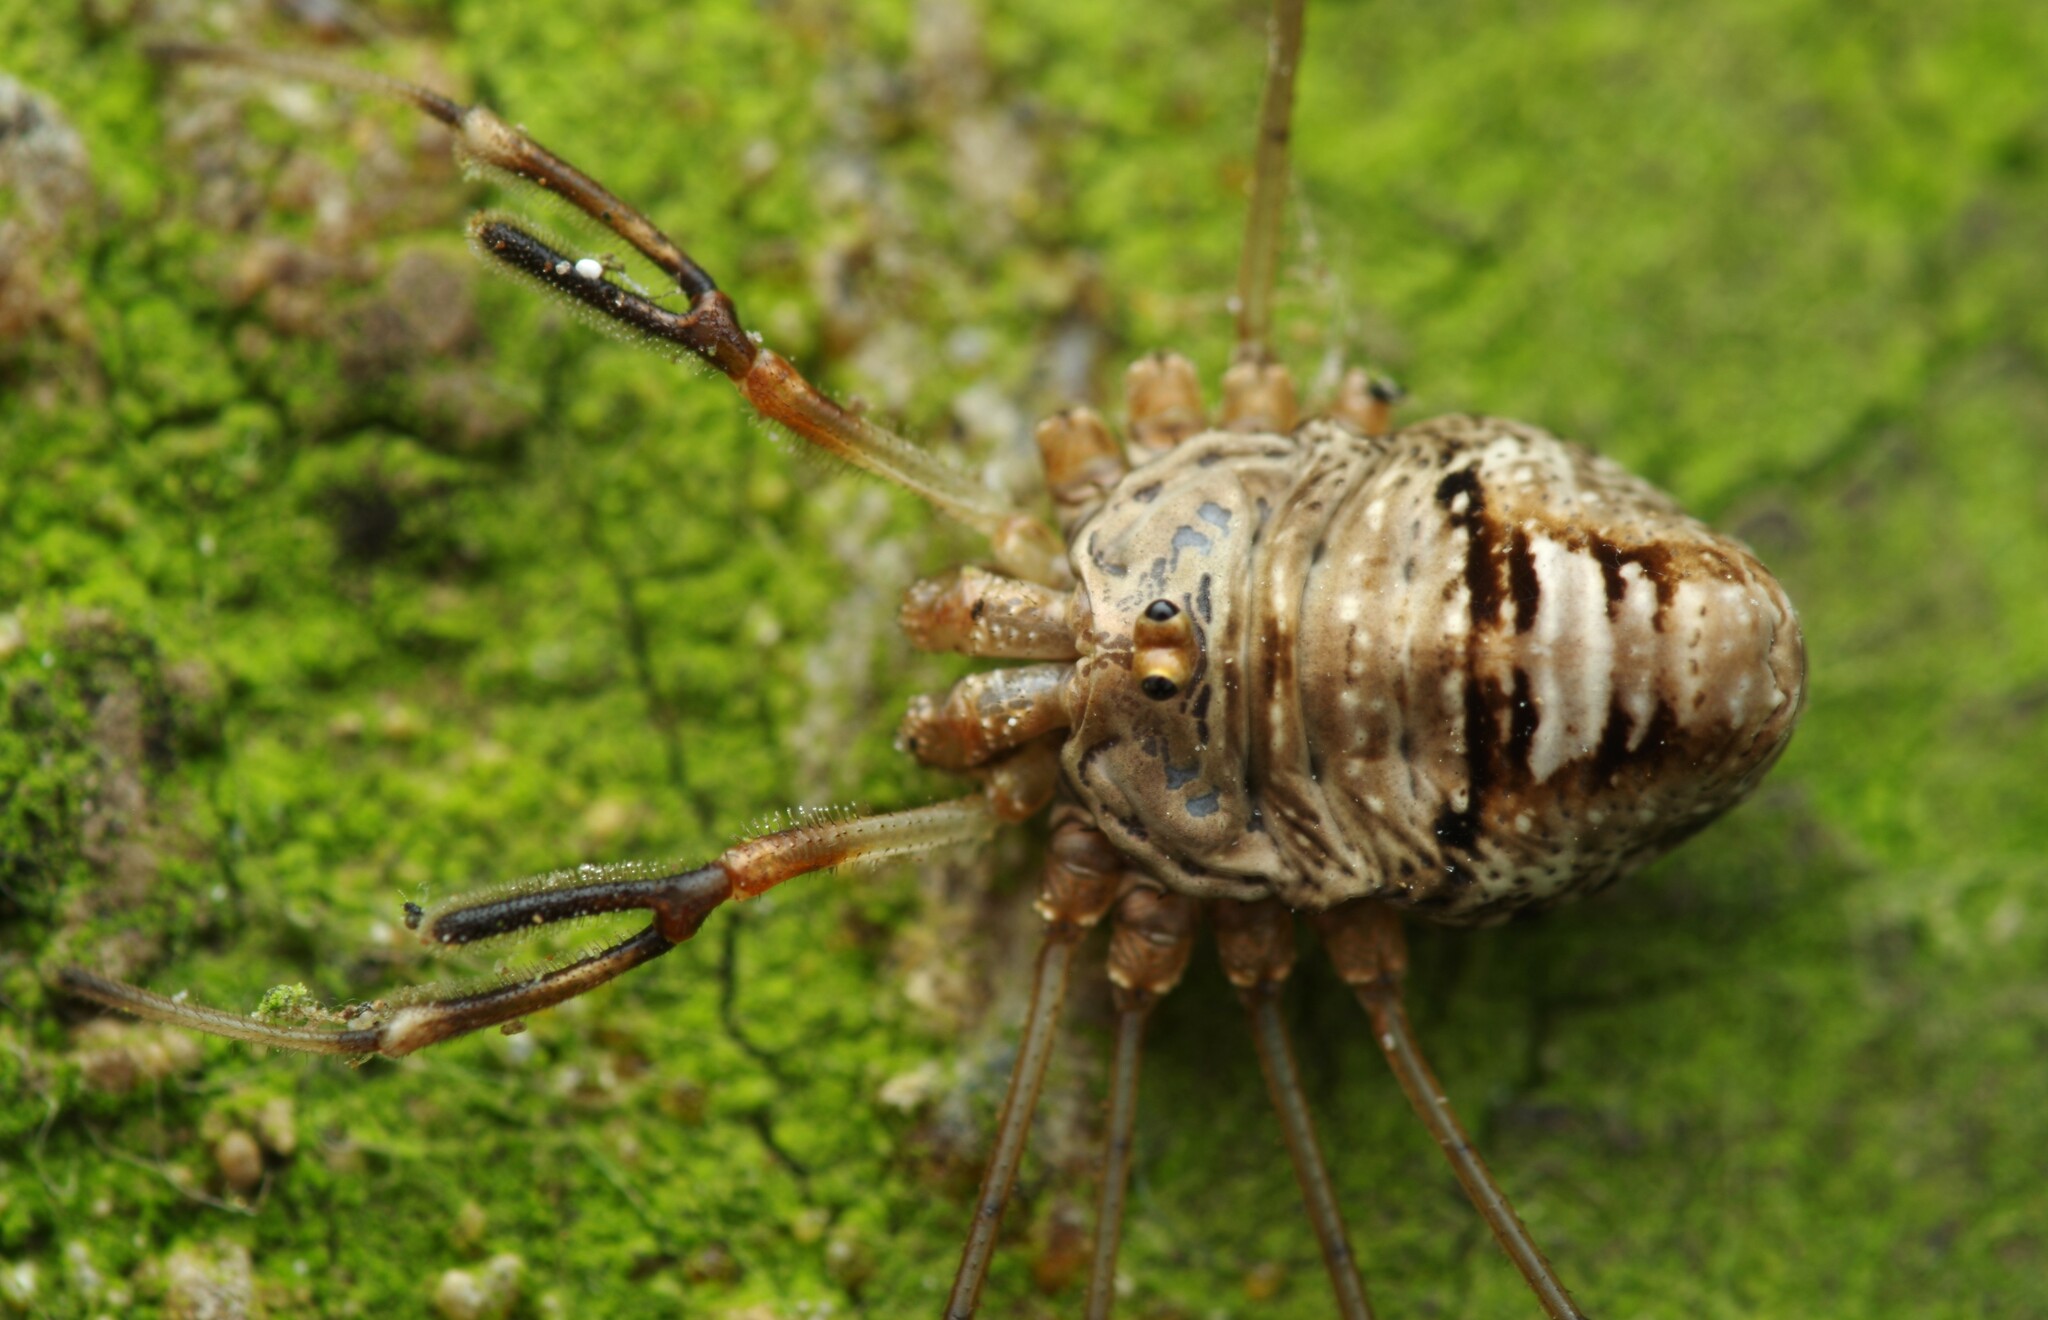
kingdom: Animalia
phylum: Arthropoda
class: Arachnida
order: Opiliones
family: Phalangiidae
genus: Dicranopalpus
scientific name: Dicranopalpus ramosus
